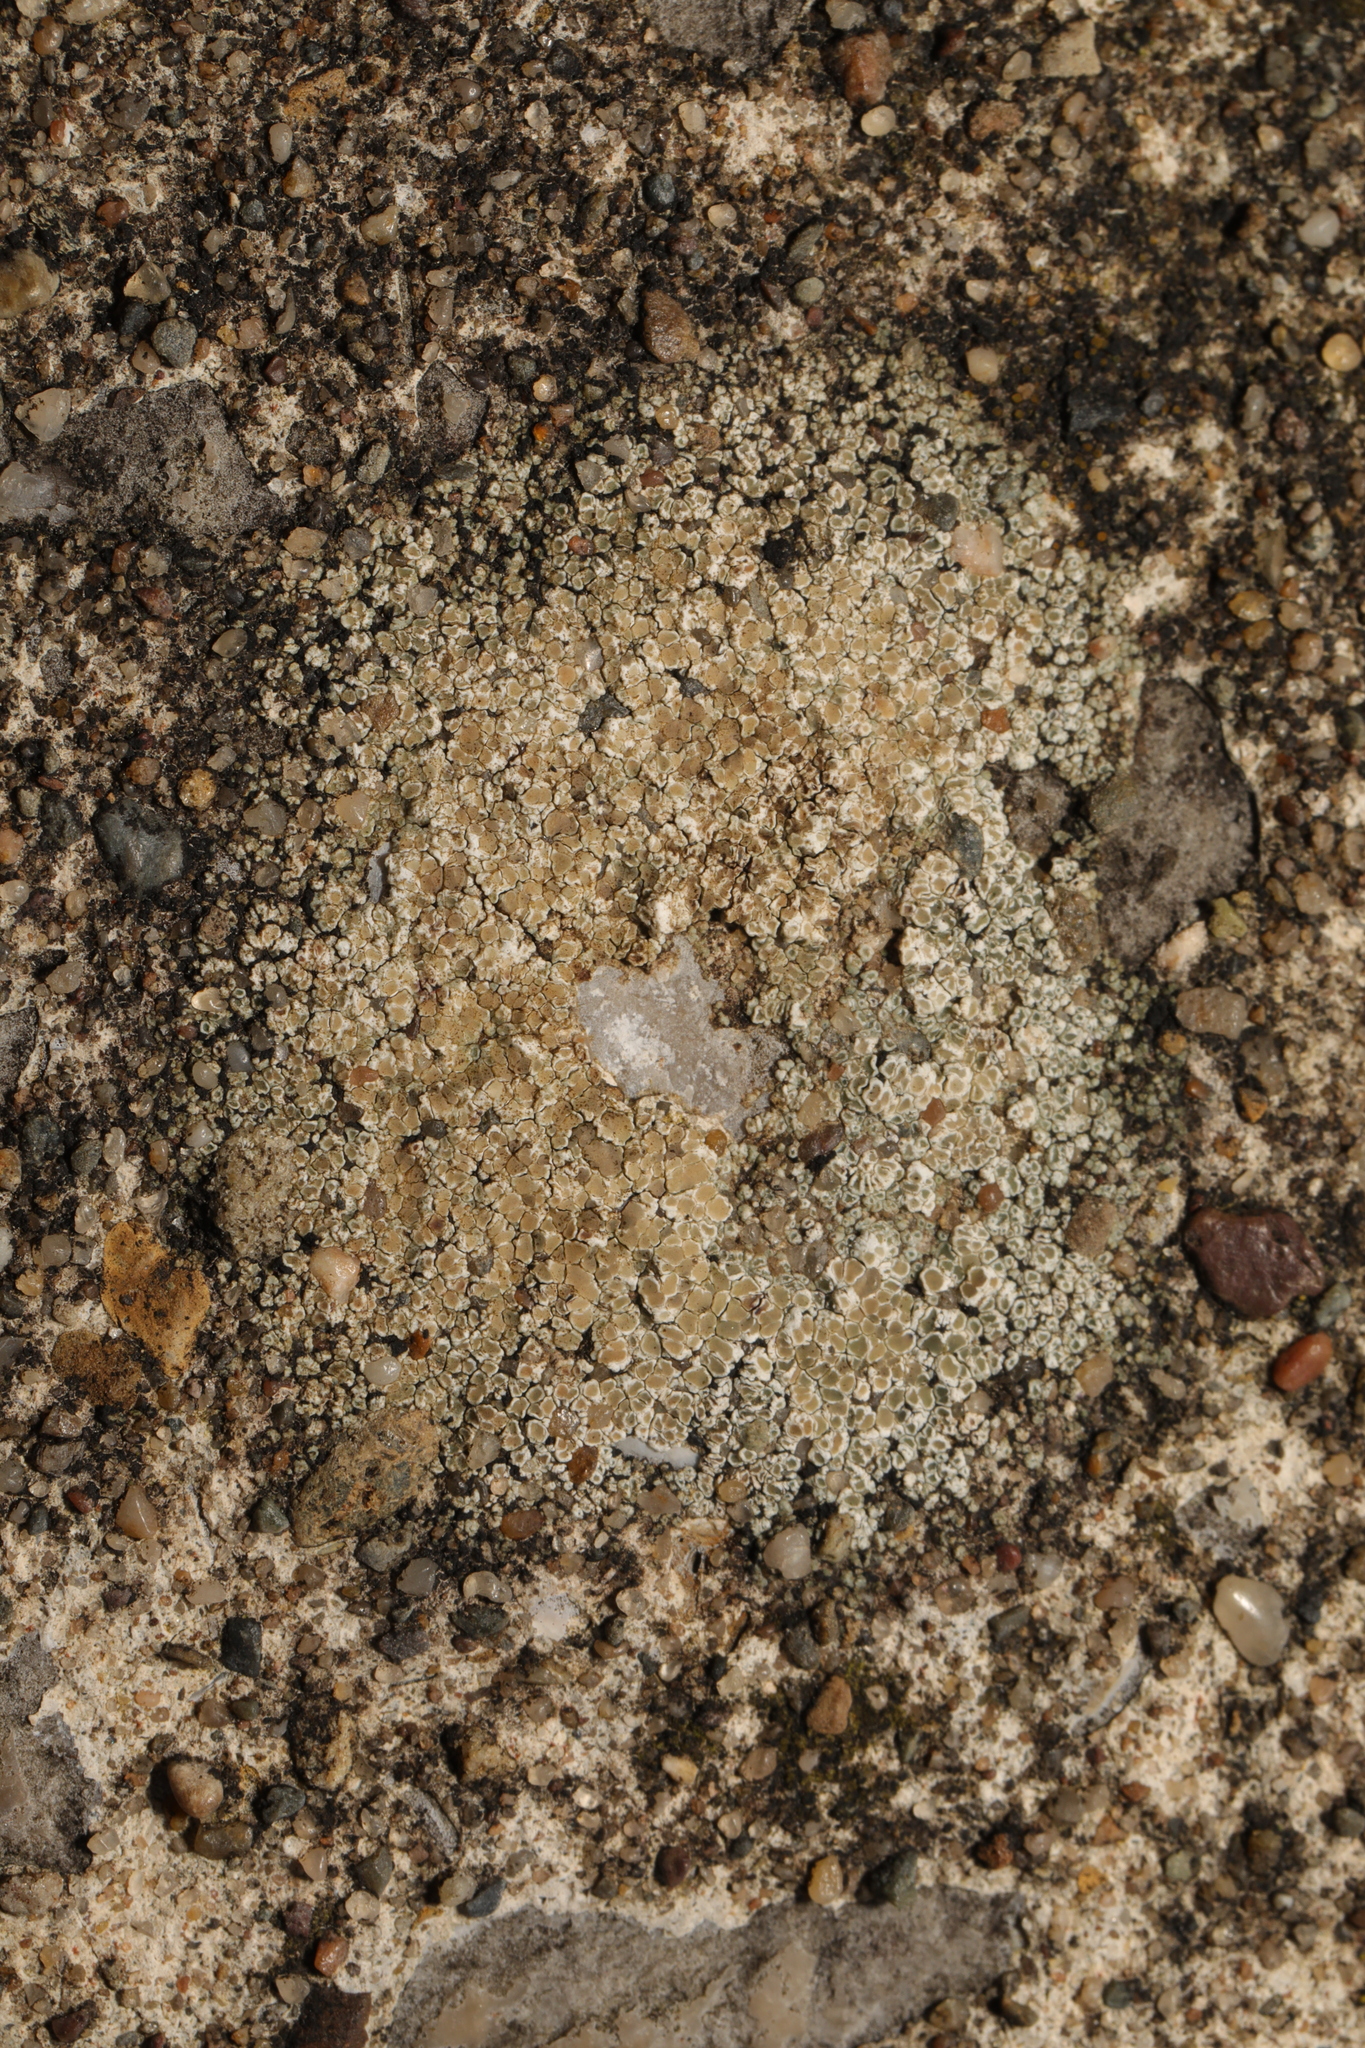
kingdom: Fungi
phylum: Ascomycota
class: Lecanoromycetes
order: Lecanorales
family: Lecanoraceae
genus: Polyozosia
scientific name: Polyozosia albescens
